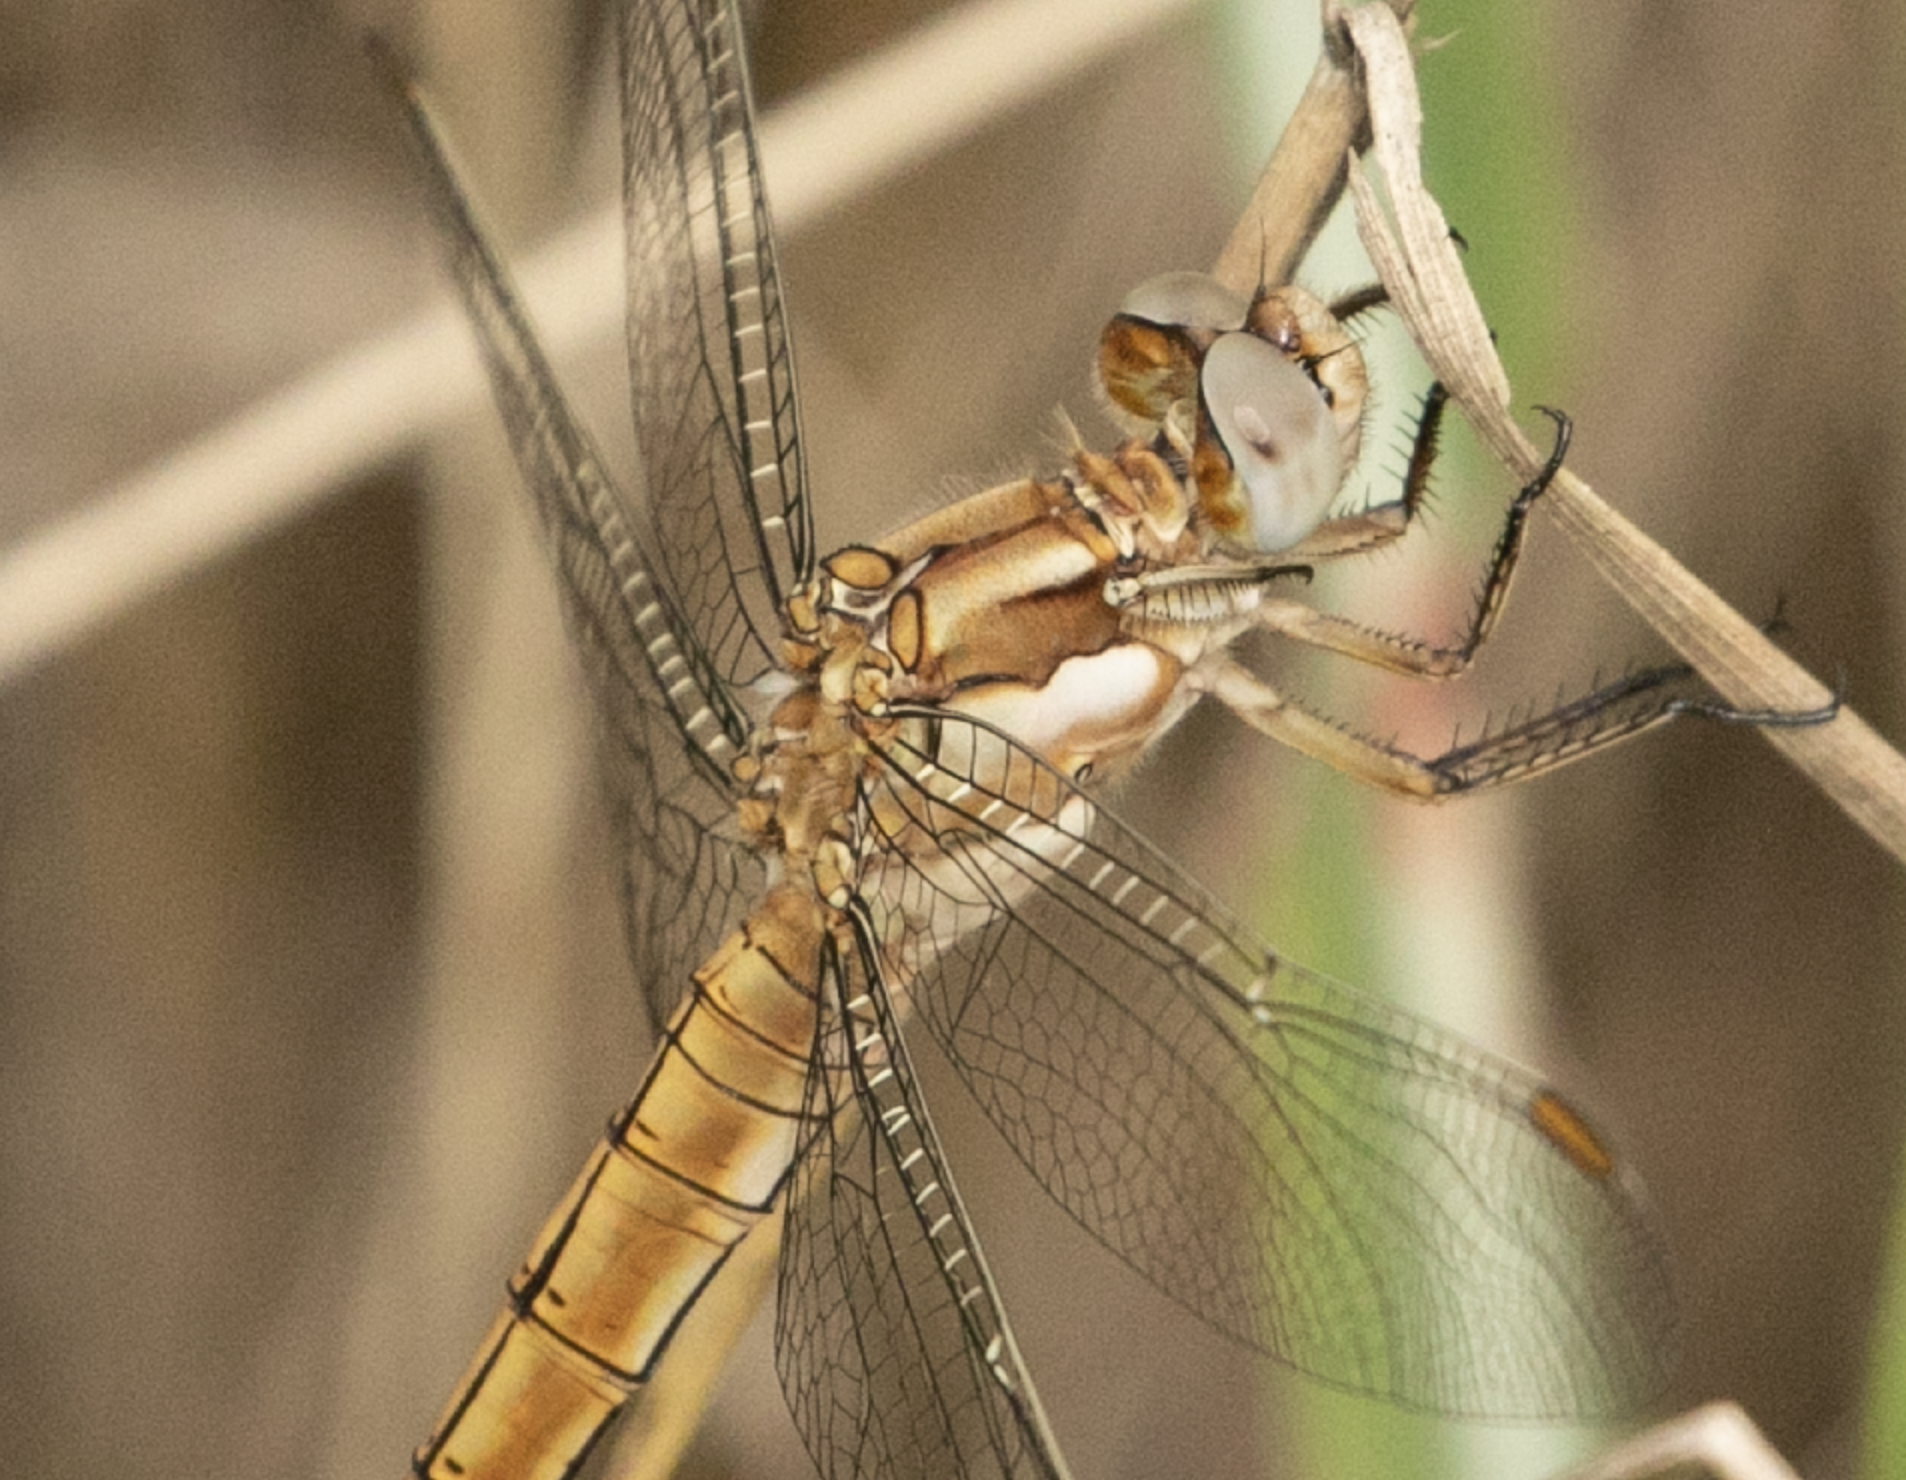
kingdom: Animalia
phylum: Arthropoda
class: Insecta
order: Odonata
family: Libellulidae
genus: Orthetrum
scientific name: Orthetrum brunneum
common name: Southern skimmer
